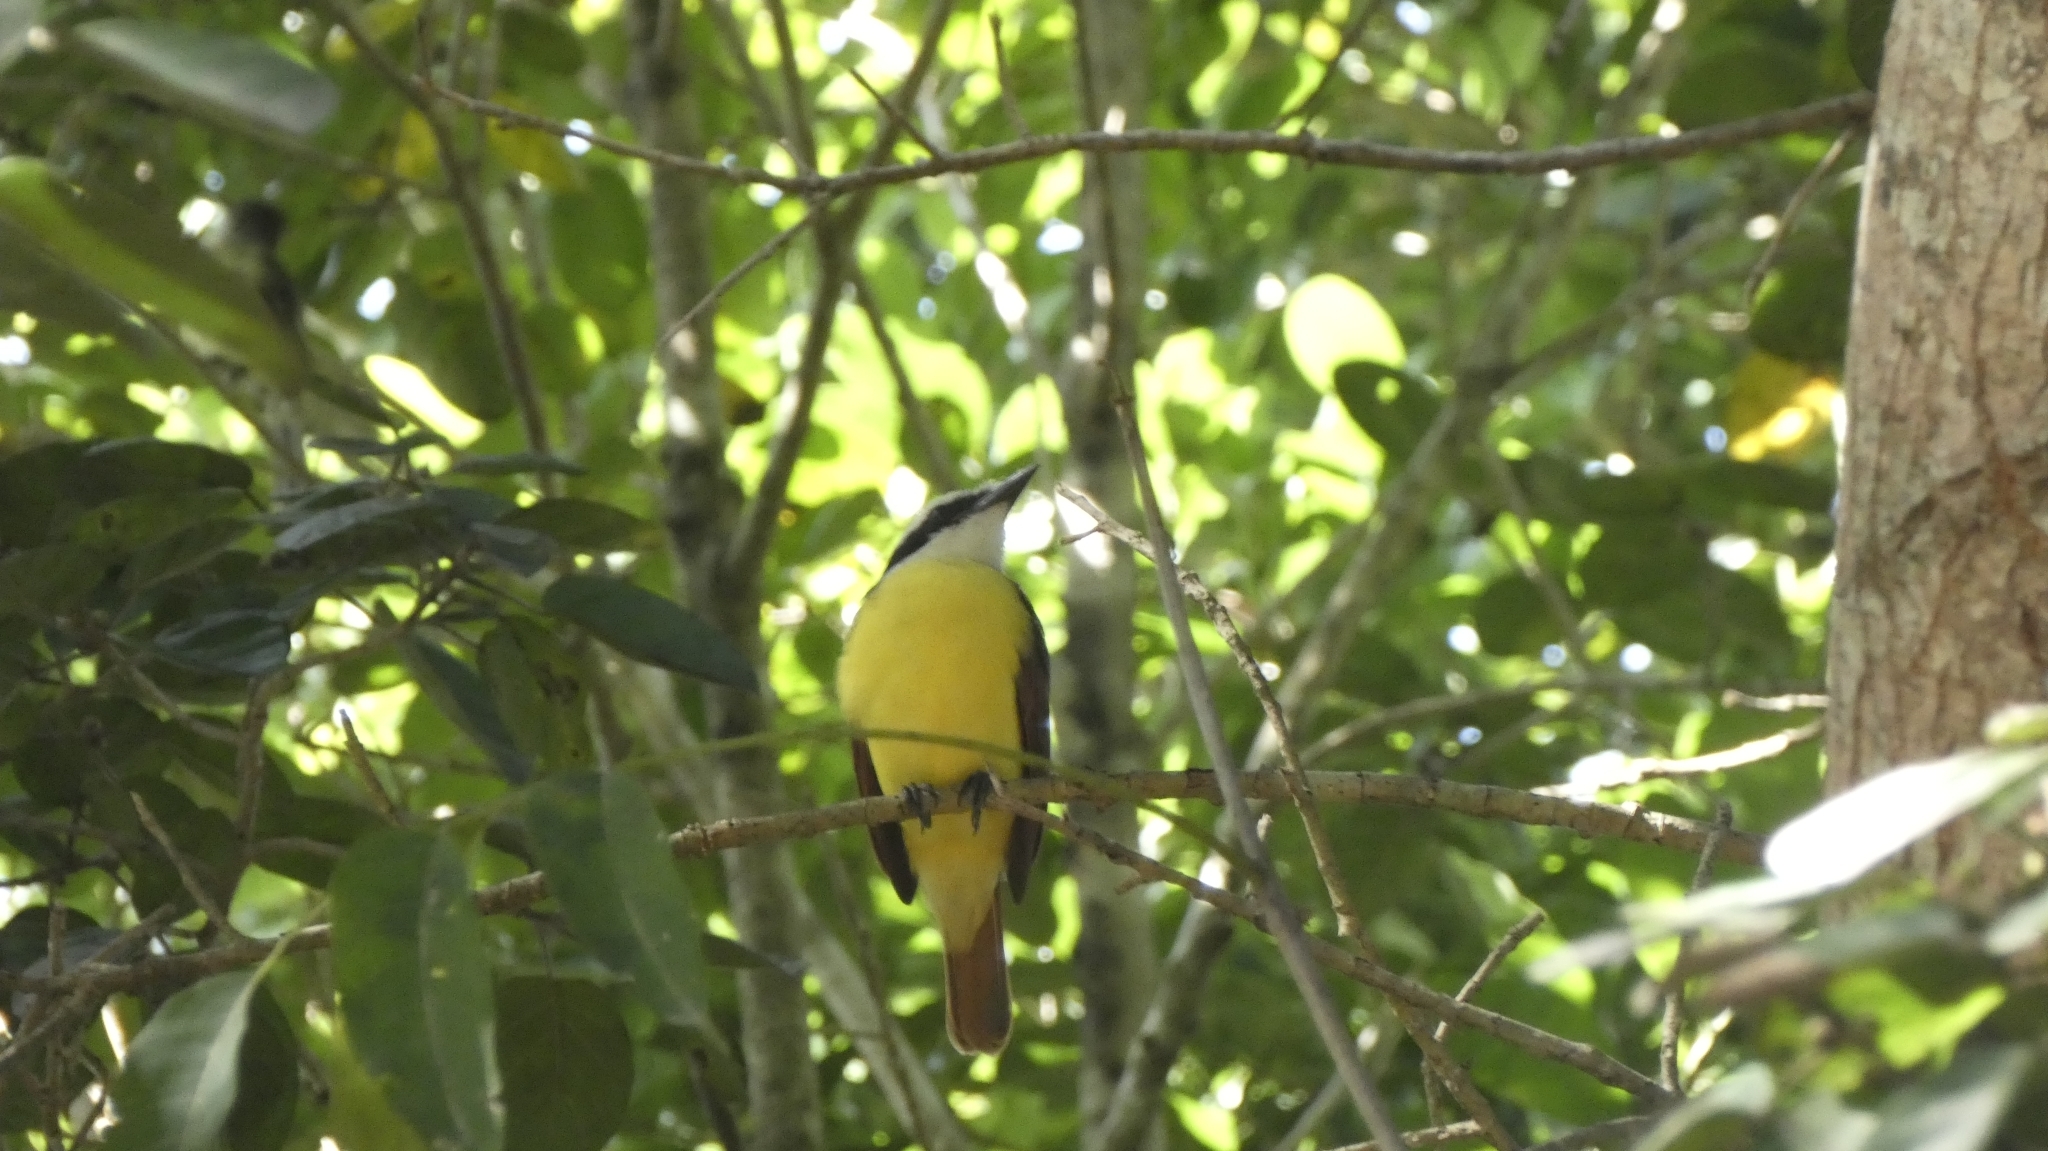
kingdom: Animalia
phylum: Chordata
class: Aves
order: Passeriformes
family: Tyrannidae
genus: Pitangus
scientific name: Pitangus sulphuratus
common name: Great kiskadee
